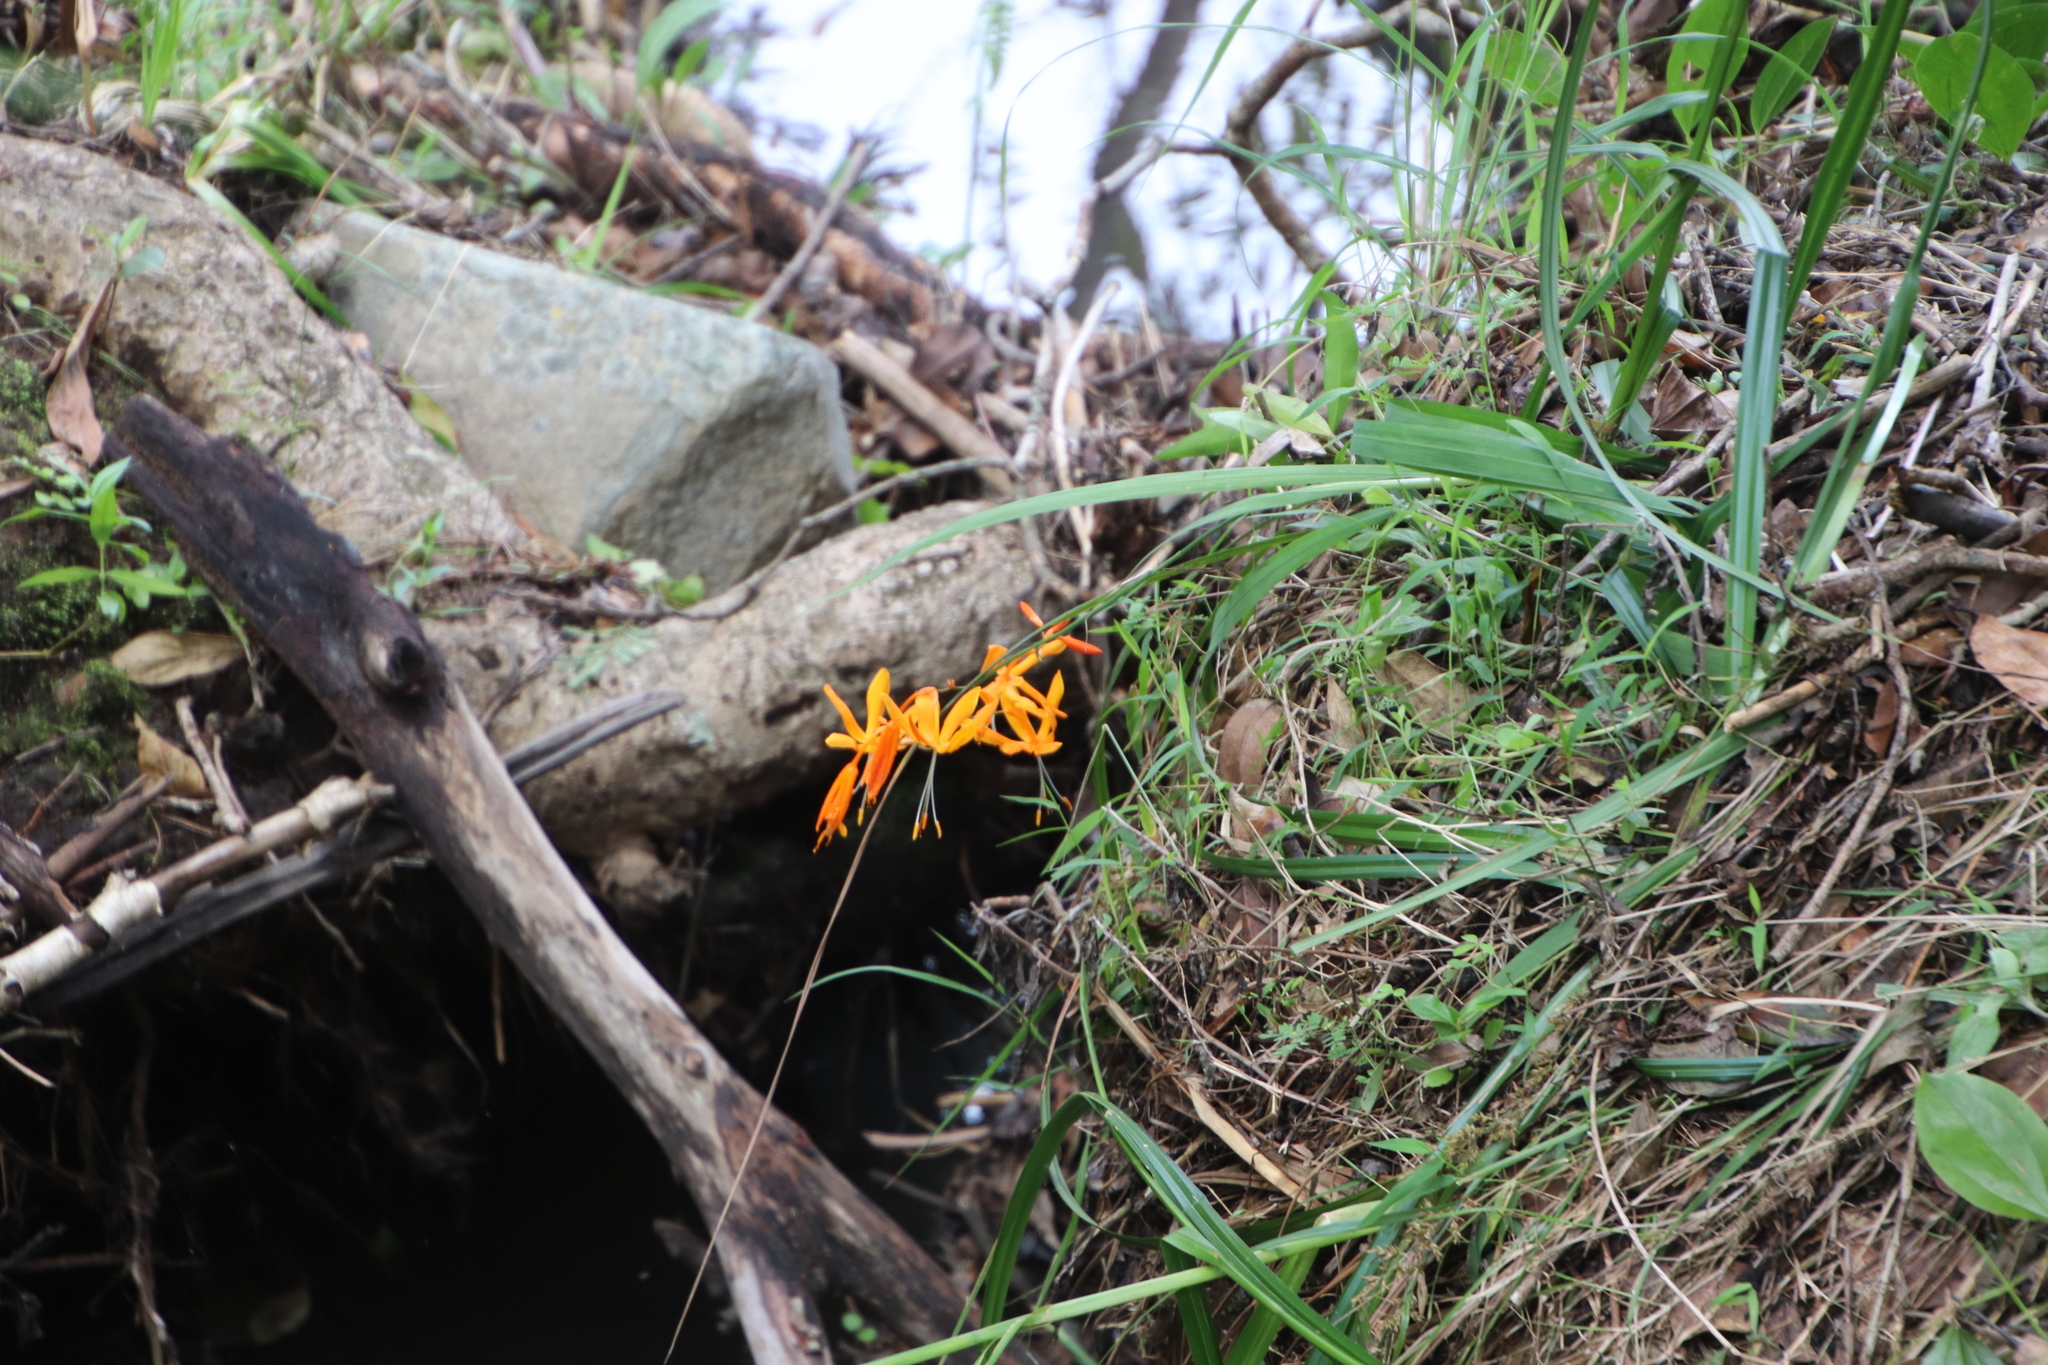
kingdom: Plantae
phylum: Tracheophyta
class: Liliopsida
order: Asparagales
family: Iridaceae
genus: Crocosmia
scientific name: Crocosmia aurea
